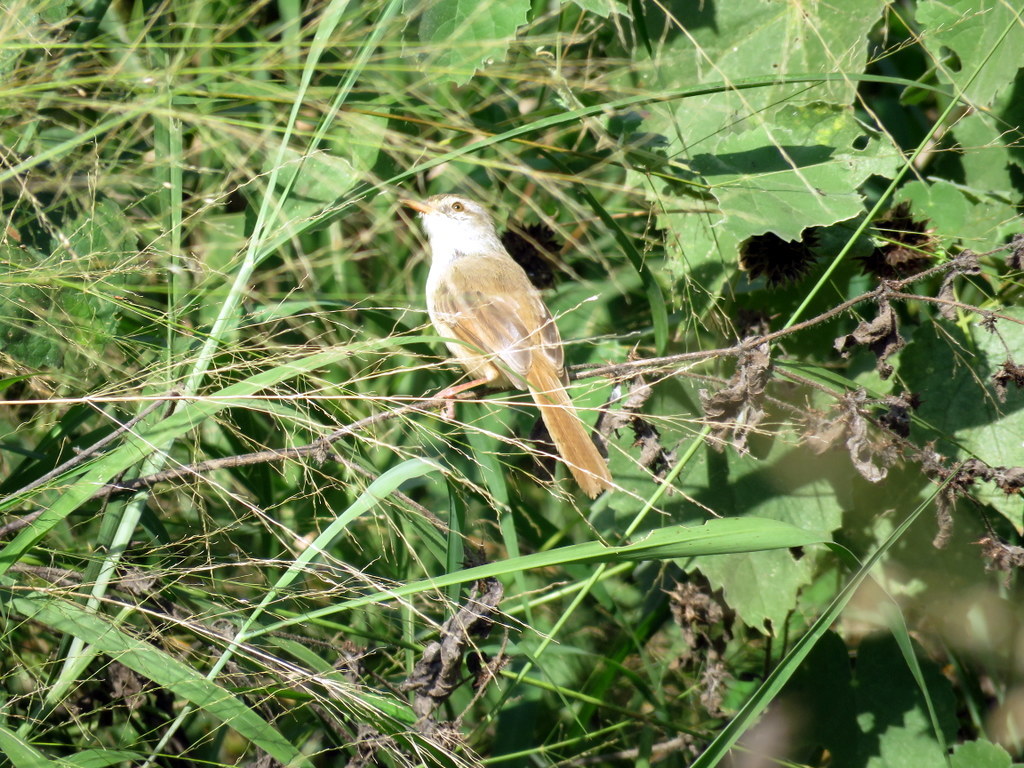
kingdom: Animalia
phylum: Chordata
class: Aves
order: Passeriformes
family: Cisticolidae
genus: Prinia
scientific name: Prinia subflava
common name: Tawny-flanked prinia
